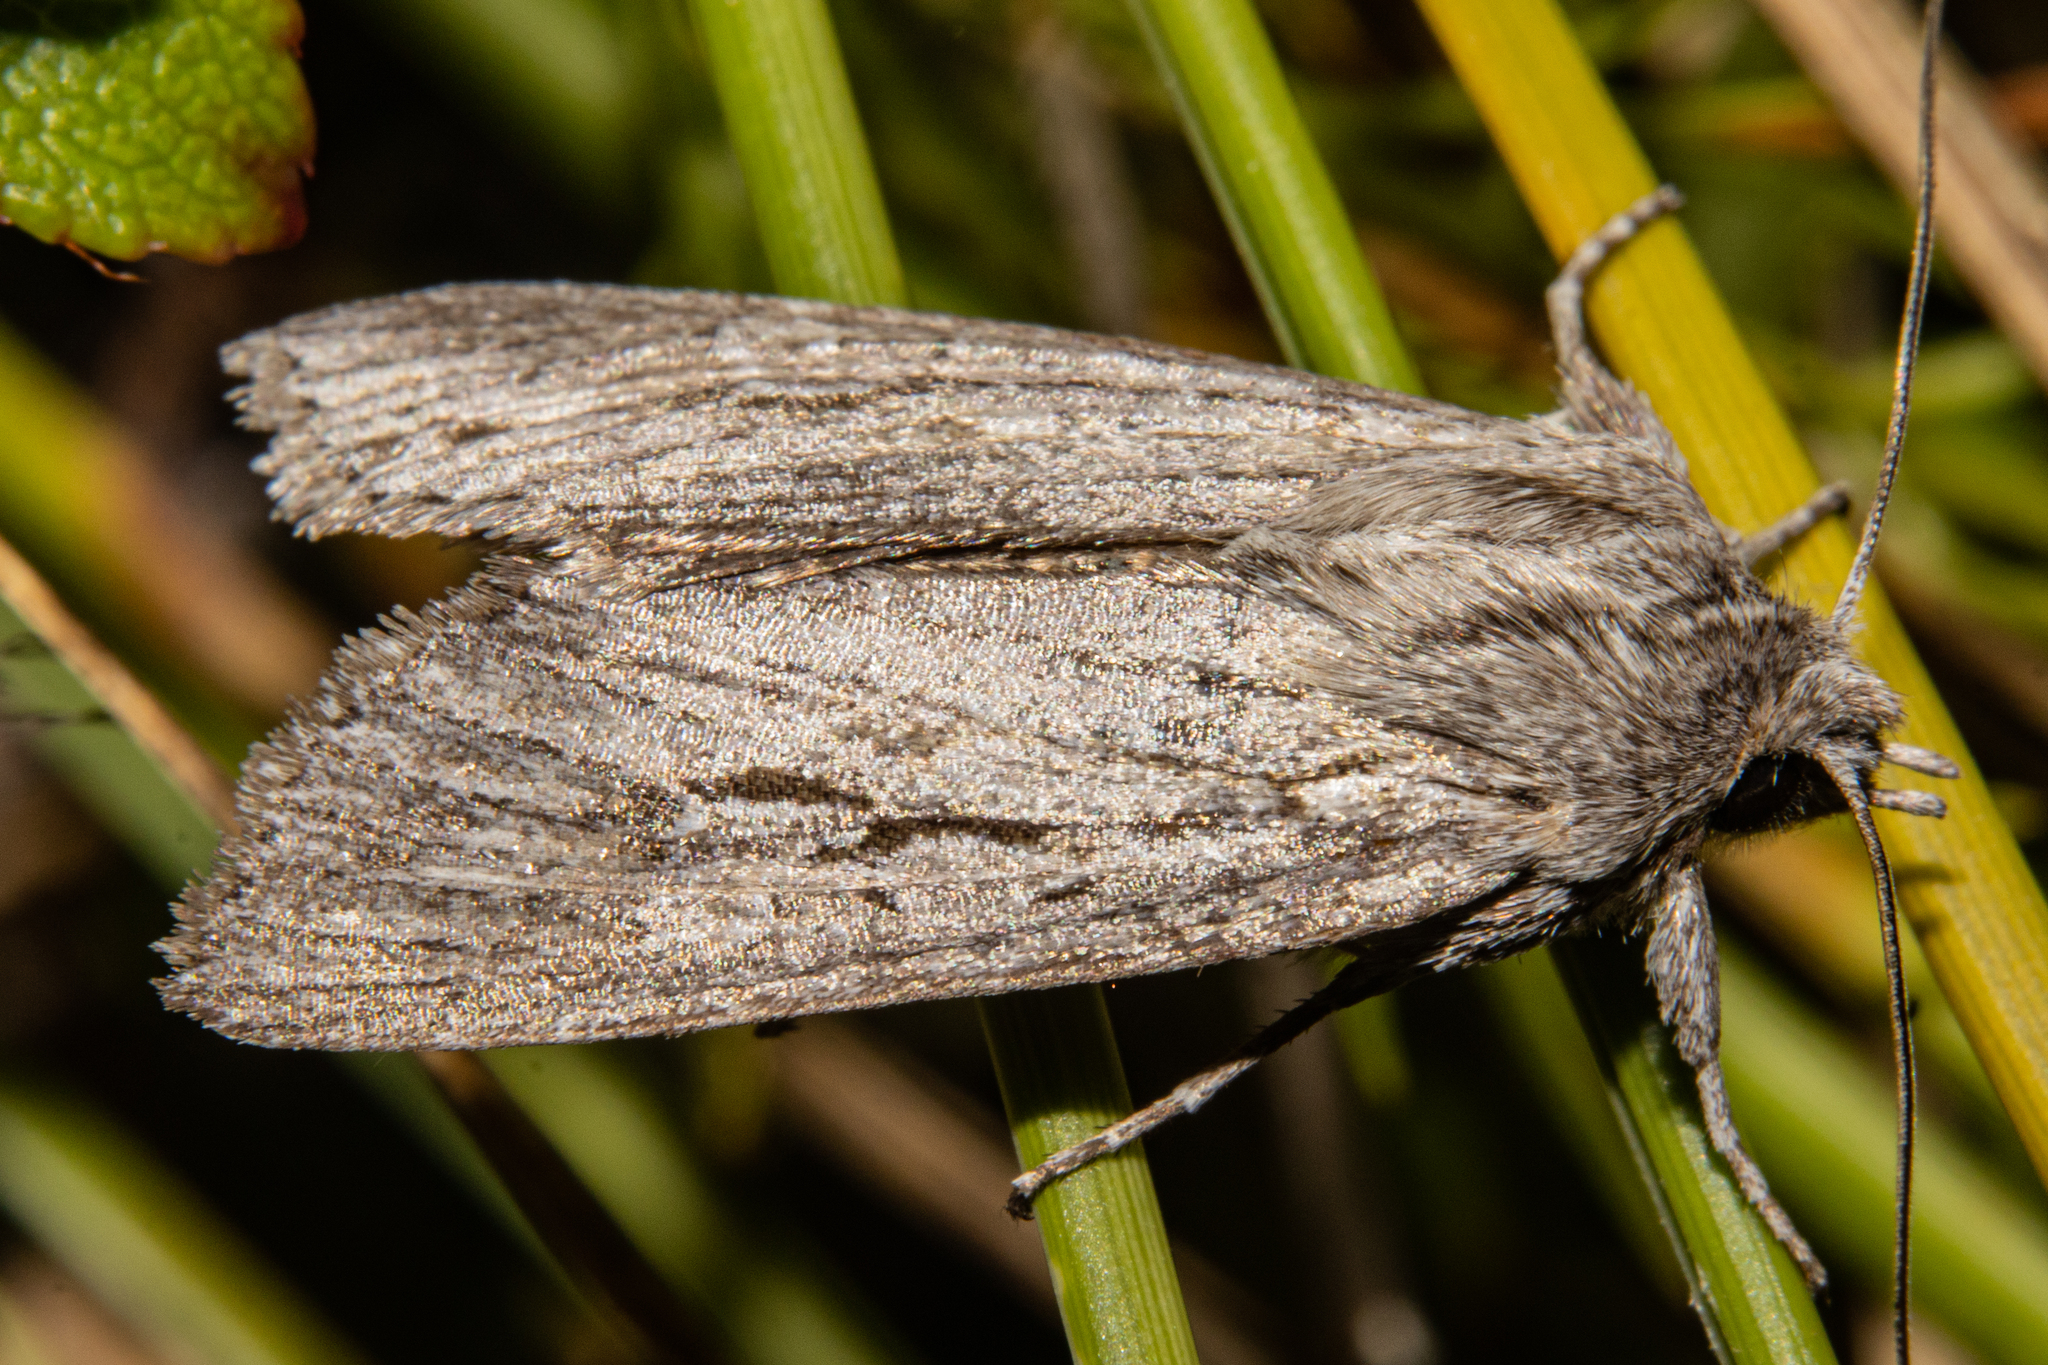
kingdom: Animalia
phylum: Arthropoda
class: Insecta
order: Lepidoptera
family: Noctuidae
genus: Physetica
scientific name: Physetica sequens
